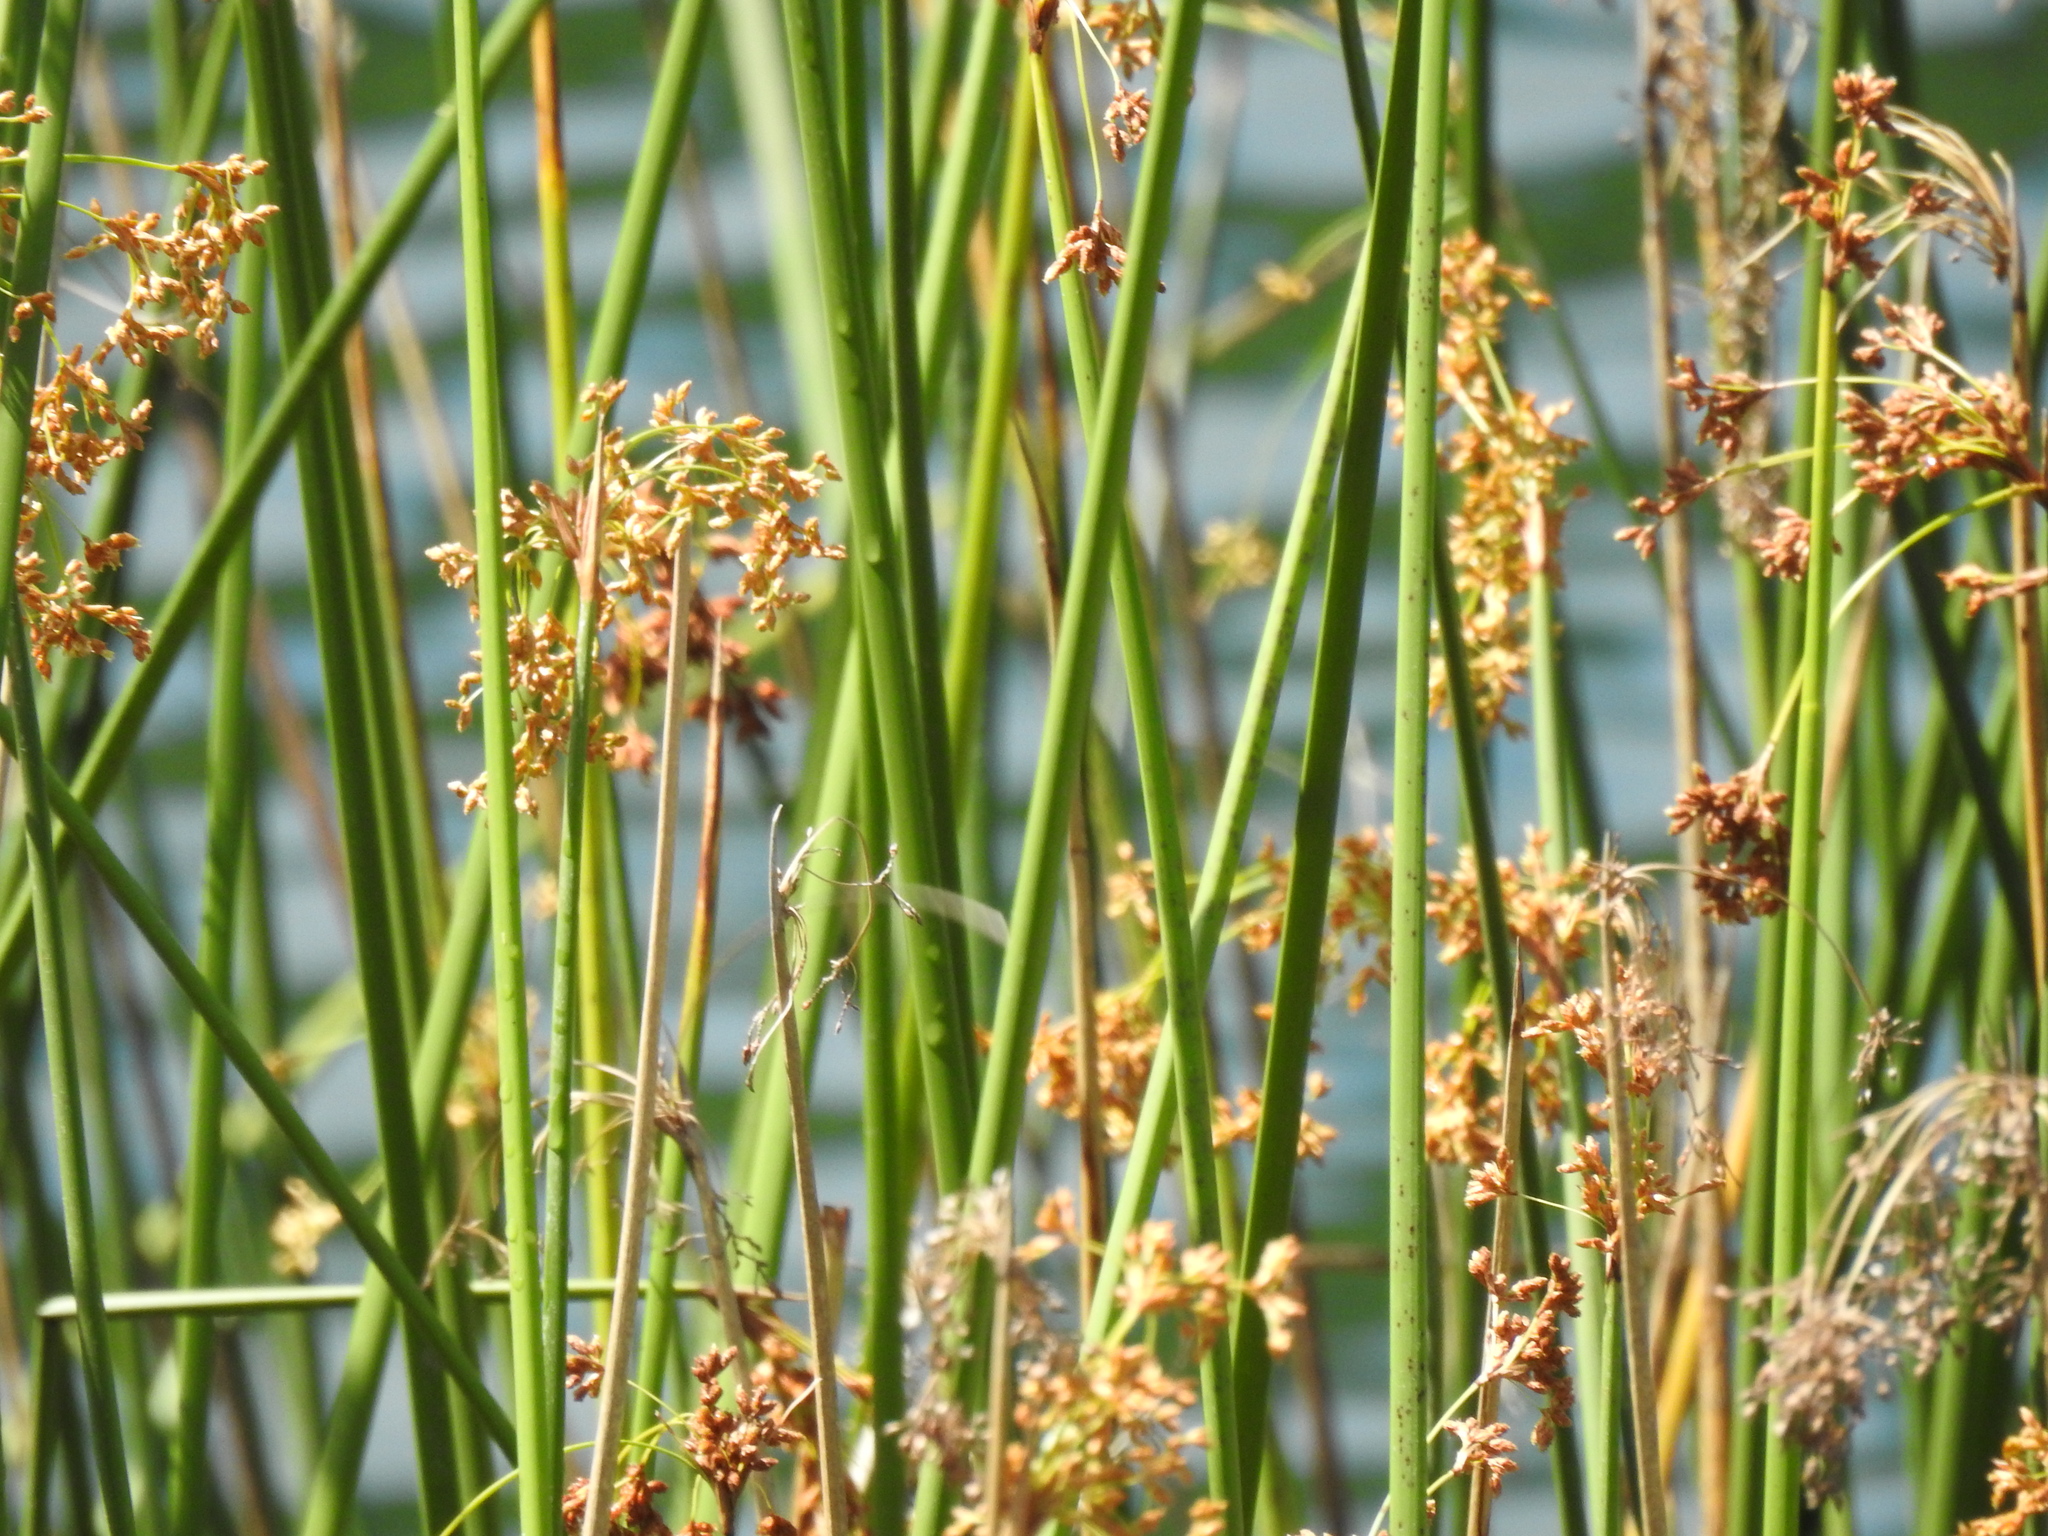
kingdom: Plantae
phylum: Tracheophyta
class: Liliopsida
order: Poales
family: Cyperaceae
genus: Schoenoplectus
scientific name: Schoenoplectus californicus
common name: California bulrush
